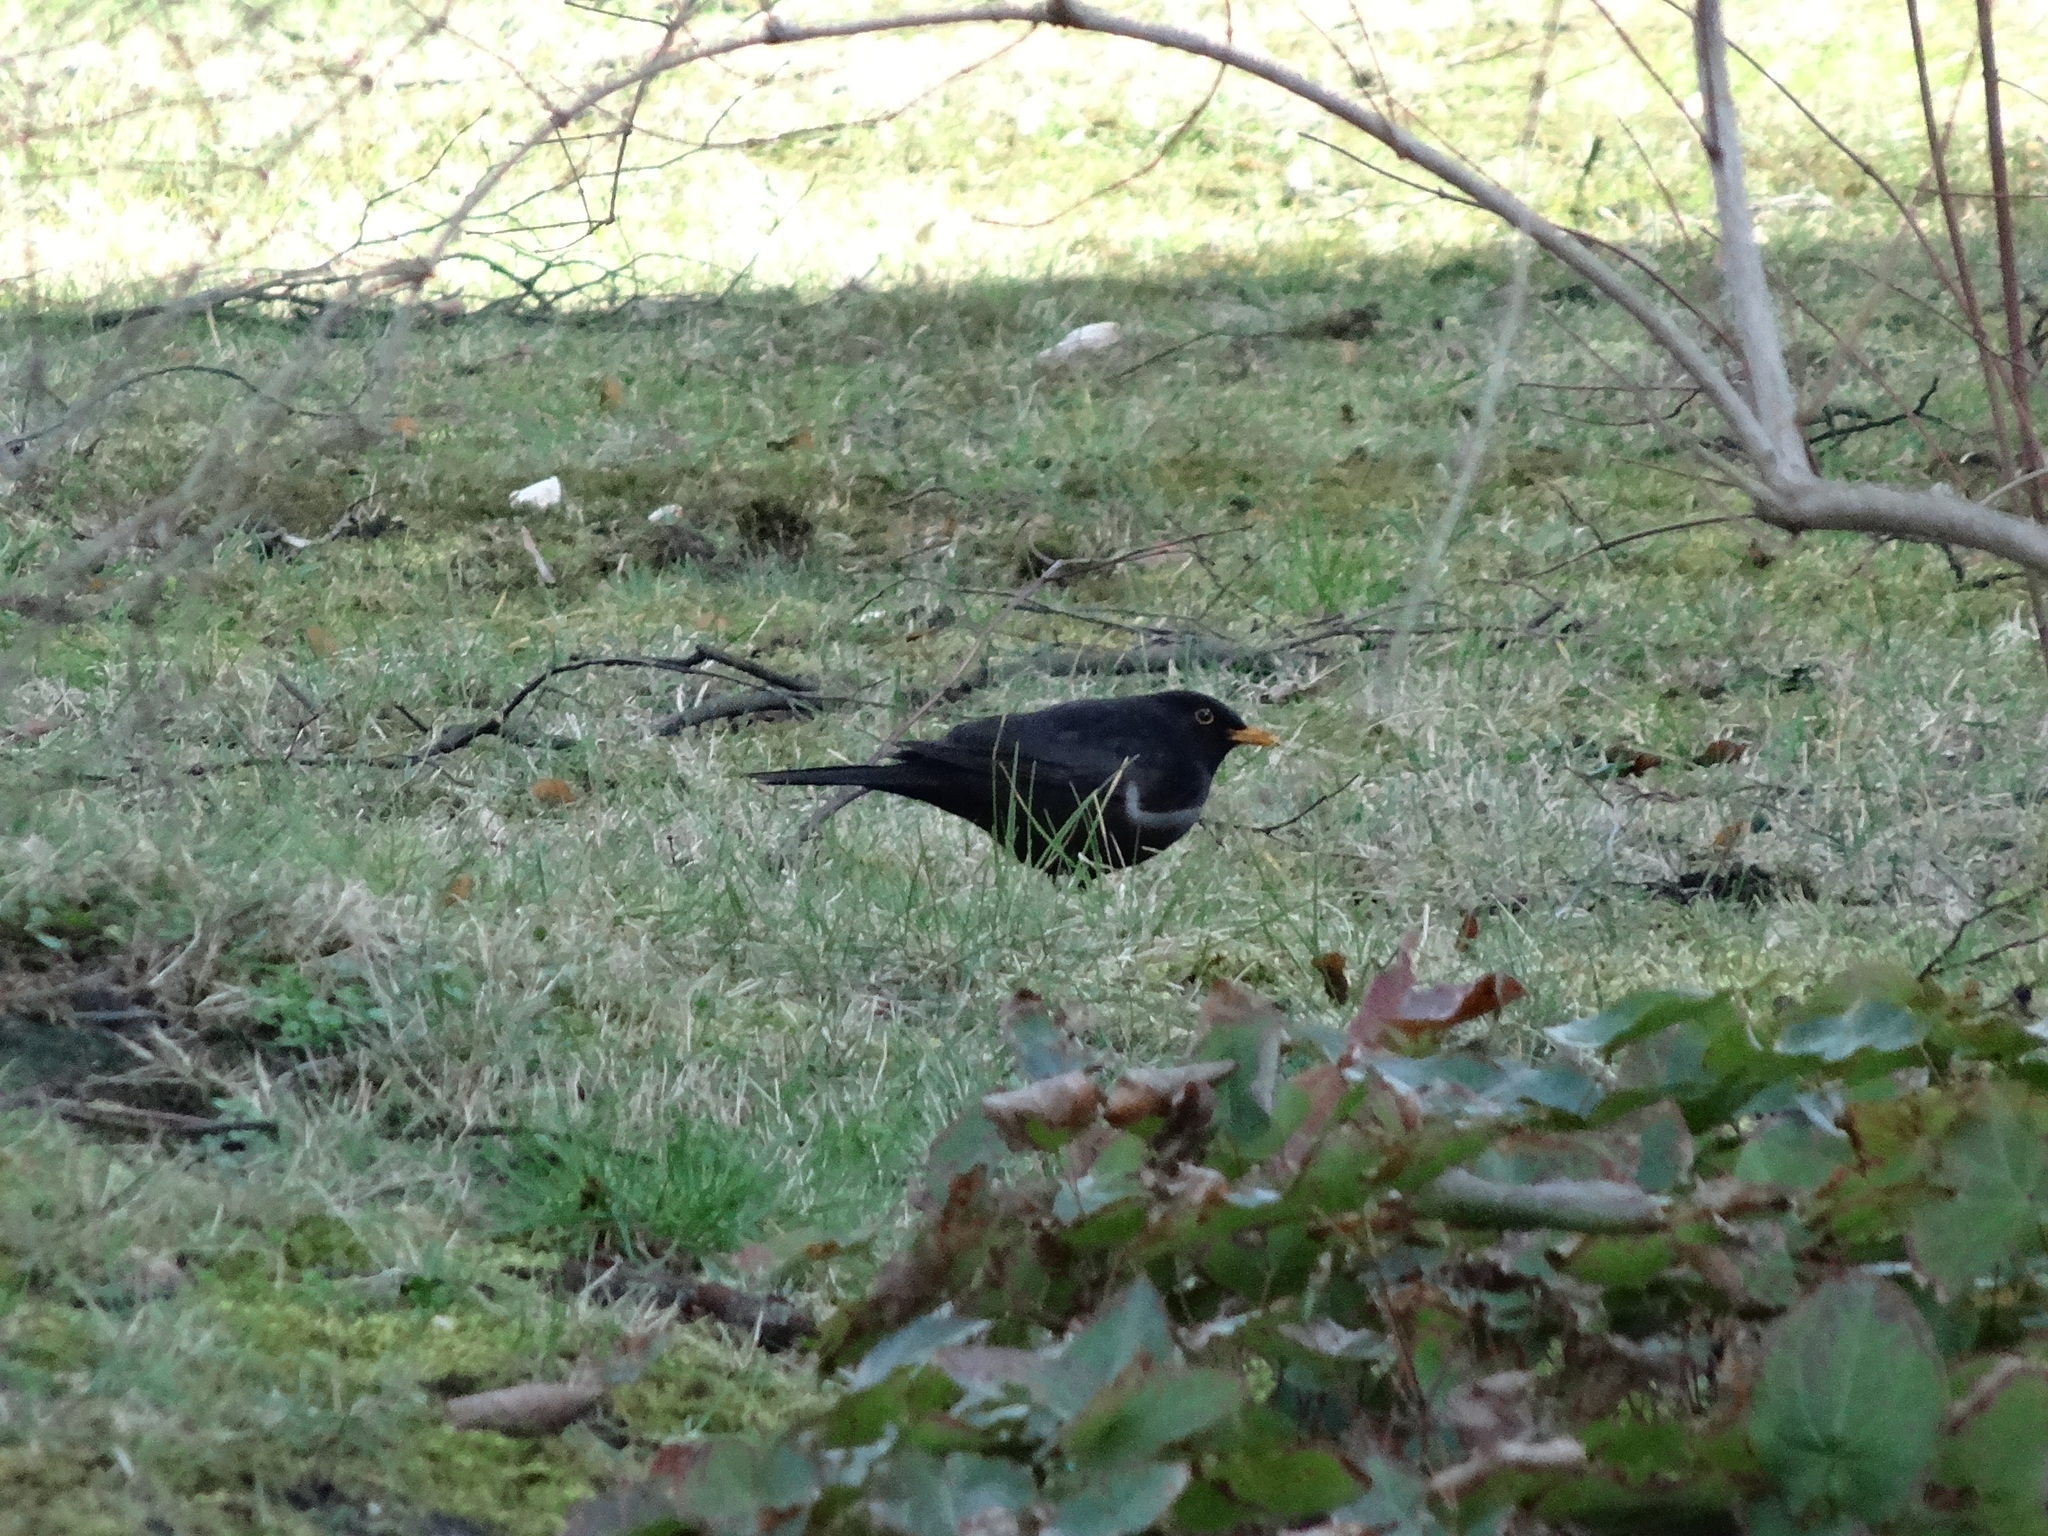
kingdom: Animalia
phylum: Chordata
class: Aves
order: Passeriformes
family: Turdidae
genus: Turdus
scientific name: Turdus merula
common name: Common blackbird
